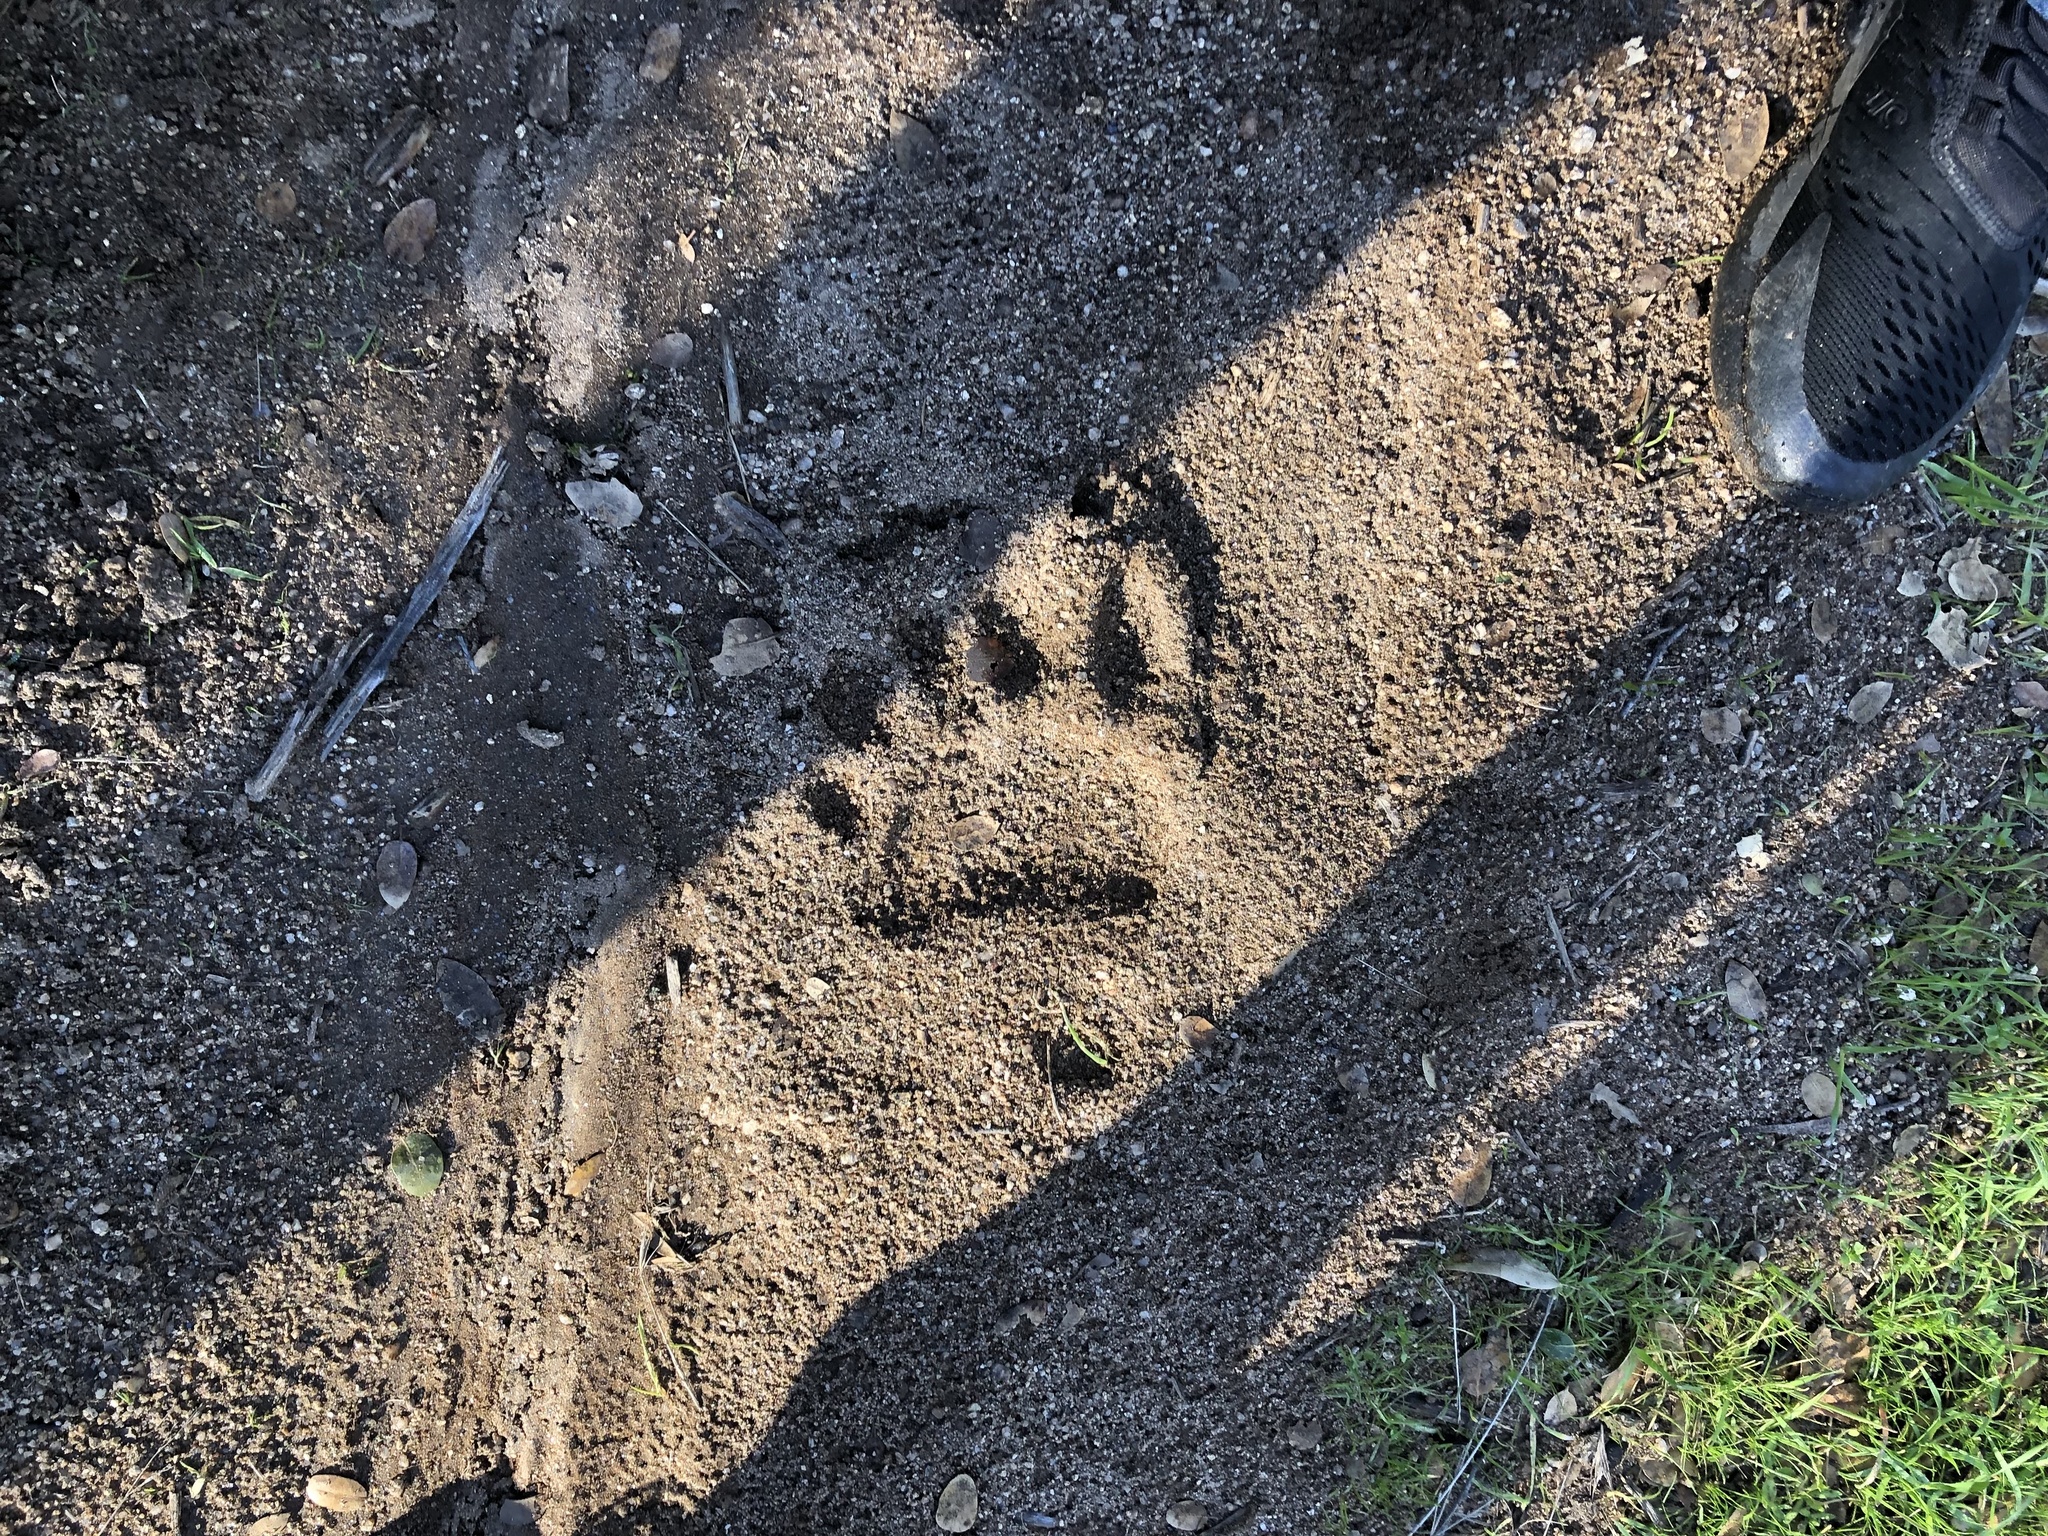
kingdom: Animalia
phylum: Chordata
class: Mammalia
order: Carnivora
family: Ursidae
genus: Ursus
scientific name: Ursus americanus
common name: American black bear
